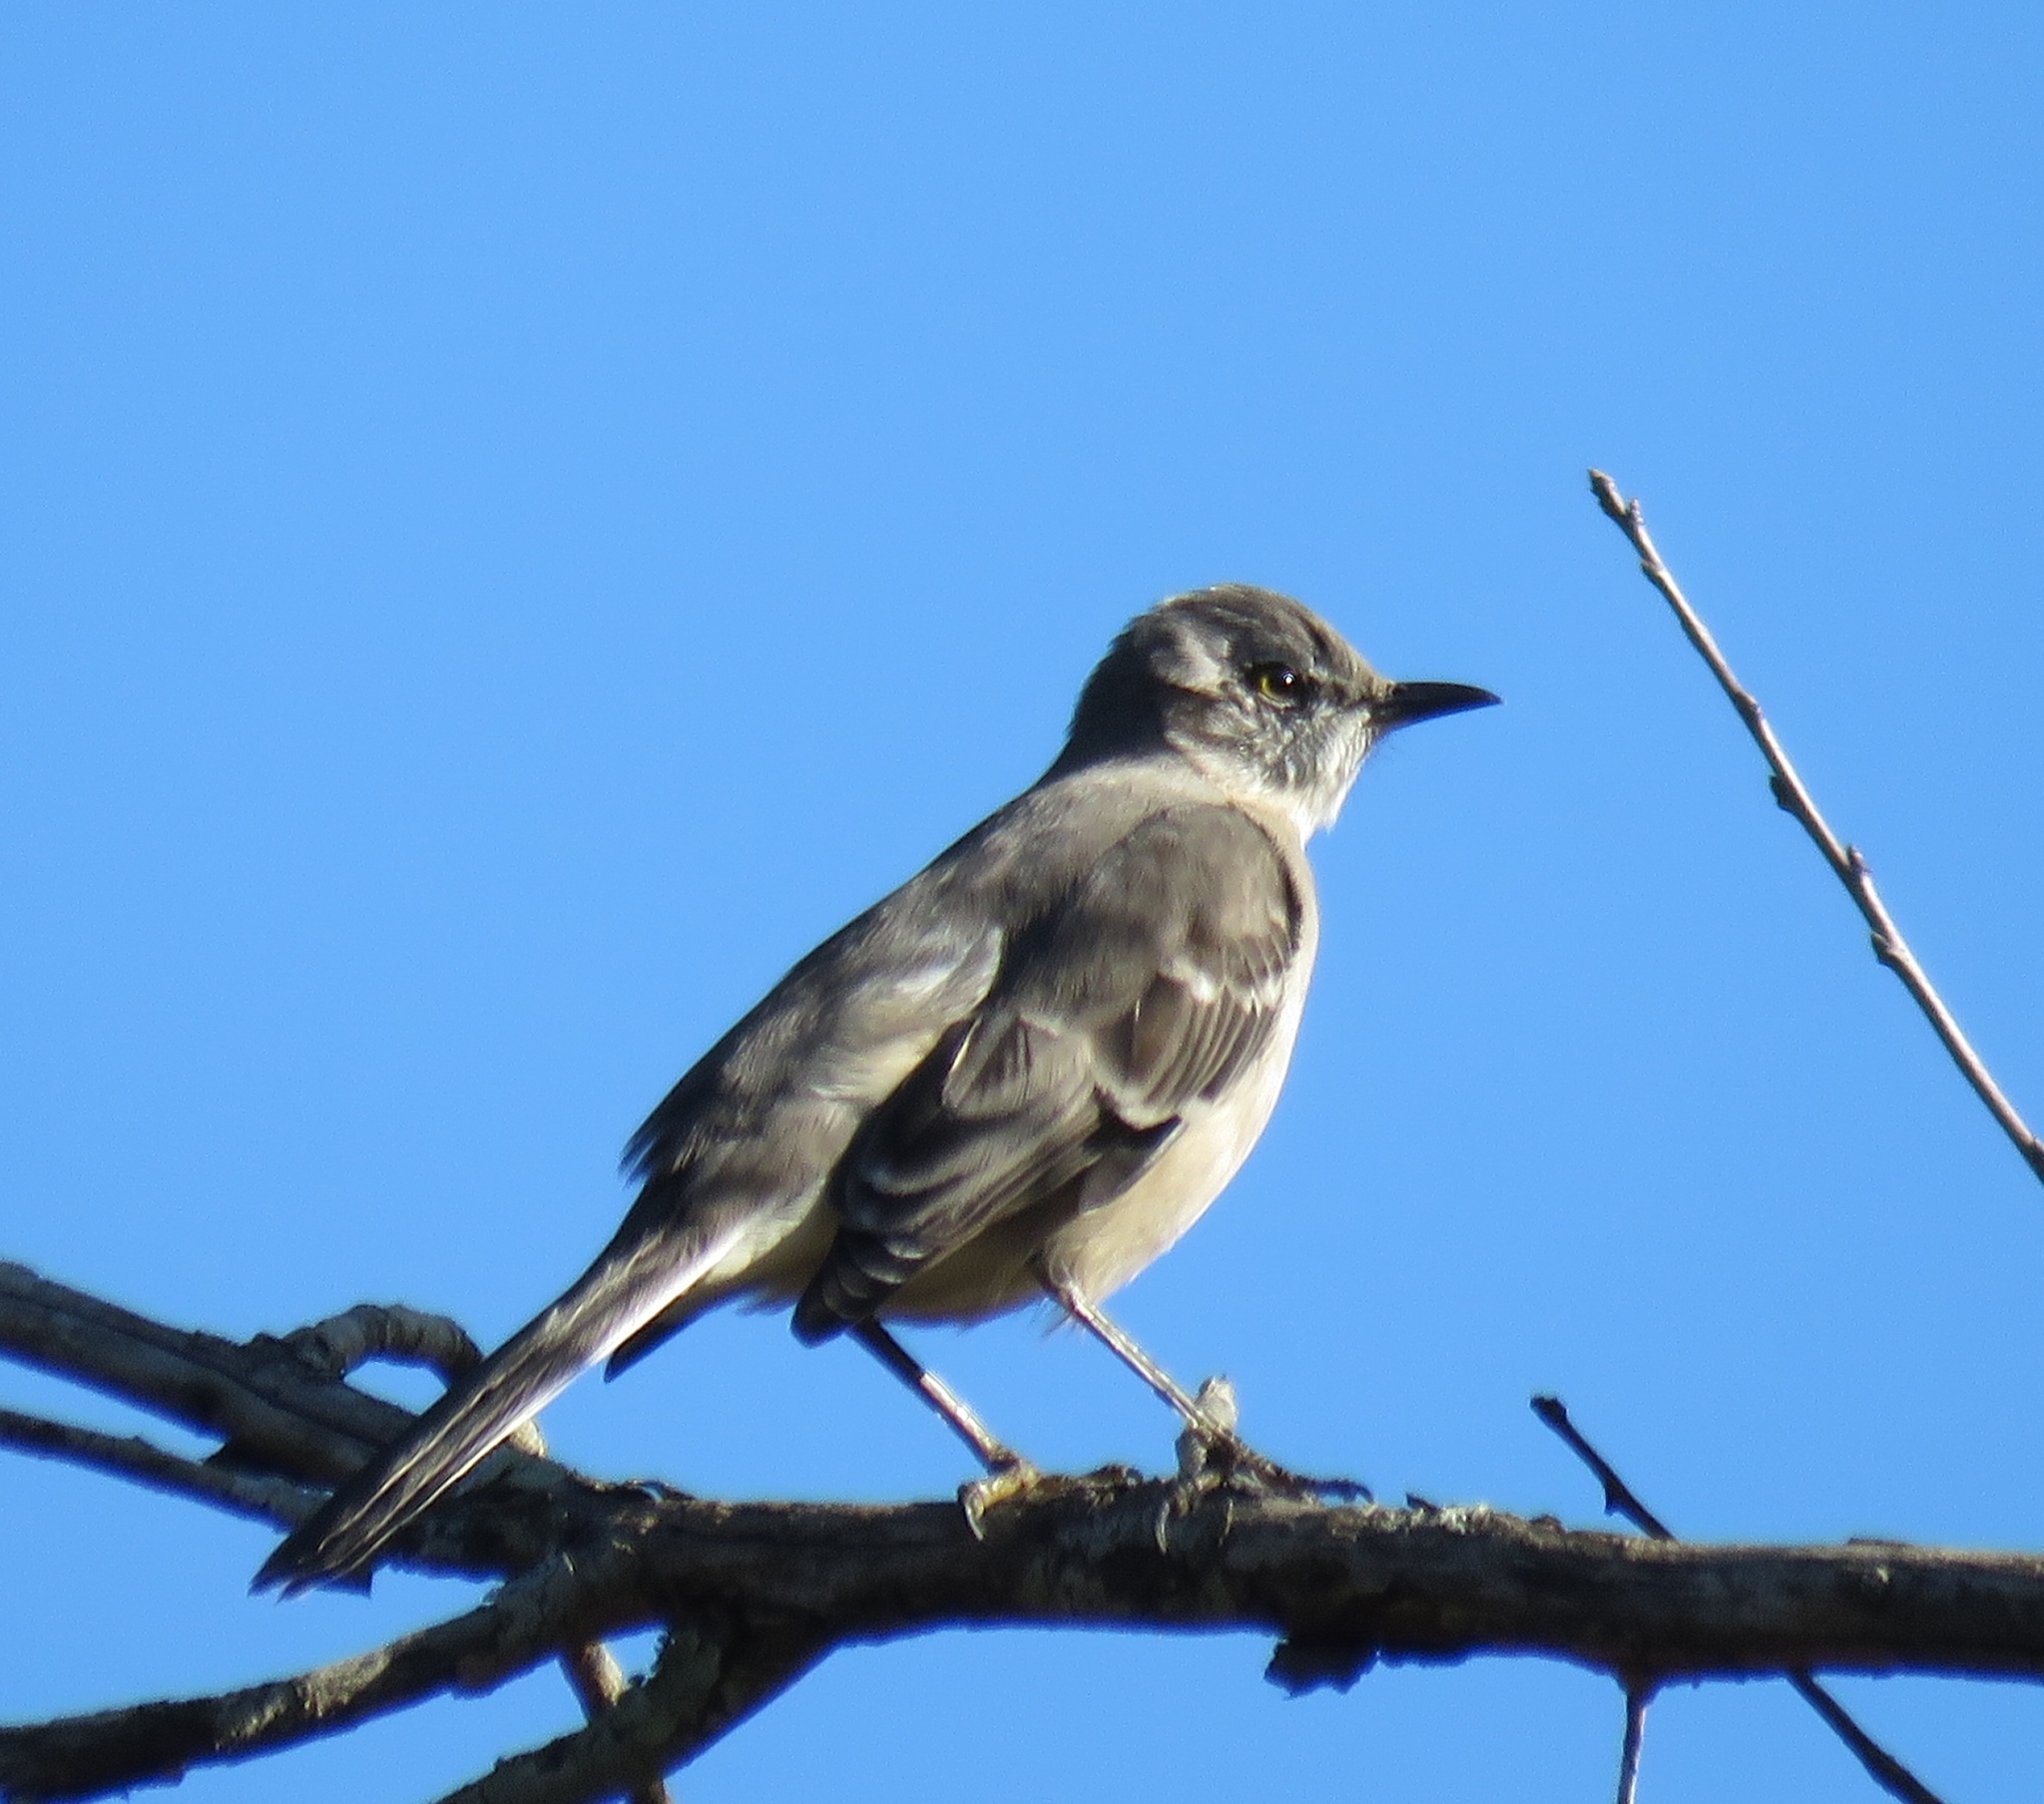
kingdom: Animalia
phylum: Chordata
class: Aves
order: Passeriformes
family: Mimidae
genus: Mimus
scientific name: Mimus polyglottos
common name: Northern mockingbird
